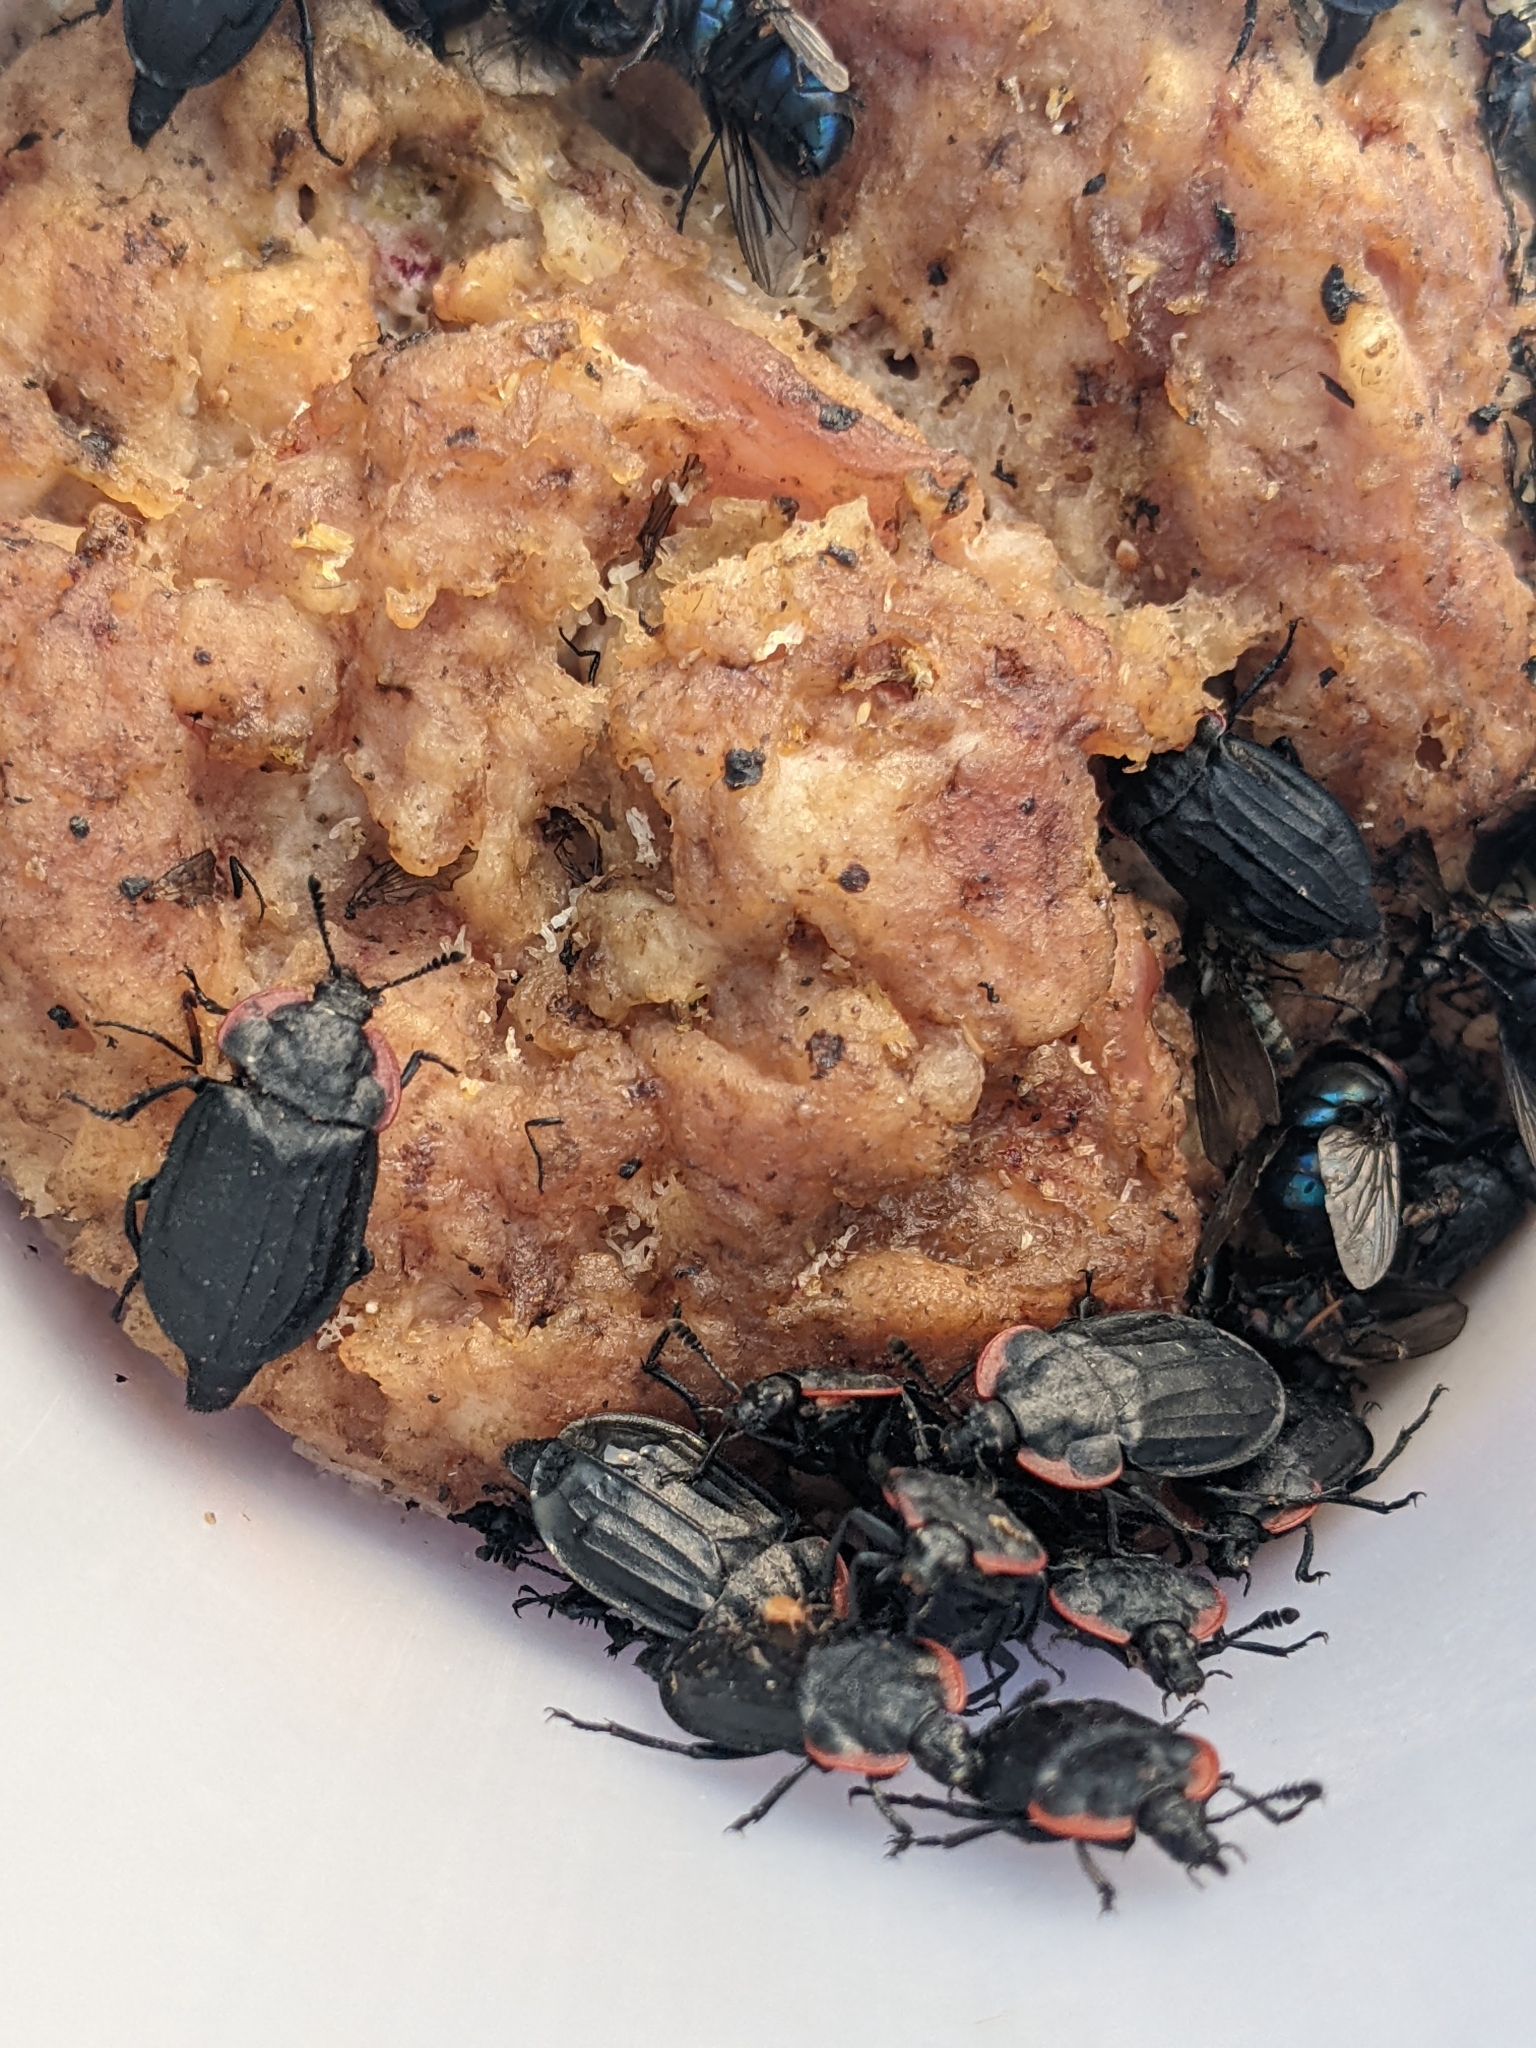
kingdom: Animalia
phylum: Arthropoda
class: Insecta
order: Coleoptera
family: Staphylinidae
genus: Oiceoptoma
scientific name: Oiceoptoma nakabayashii
